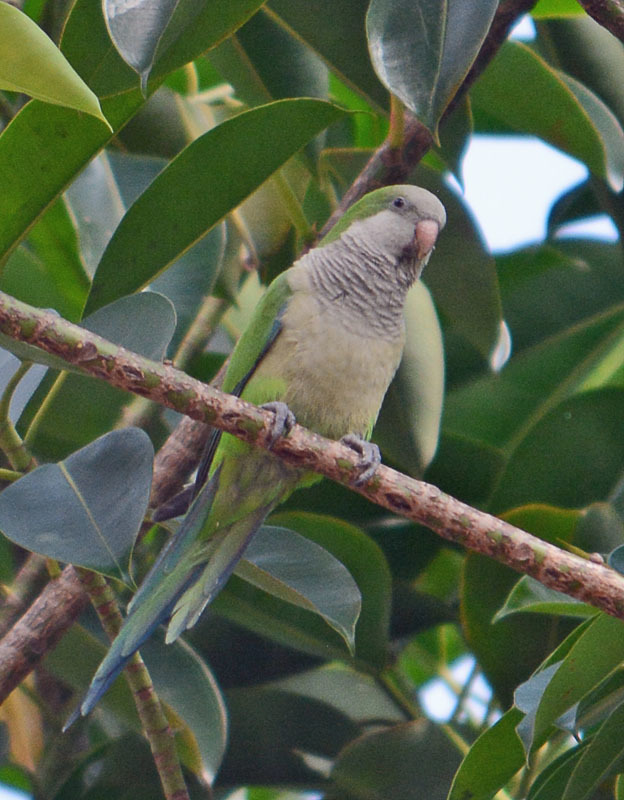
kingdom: Animalia
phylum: Chordata
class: Aves
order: Psittaciformes
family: Psittacidae
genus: Myiopsitta
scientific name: Myiopsitta monachus
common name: Monk parakeet
